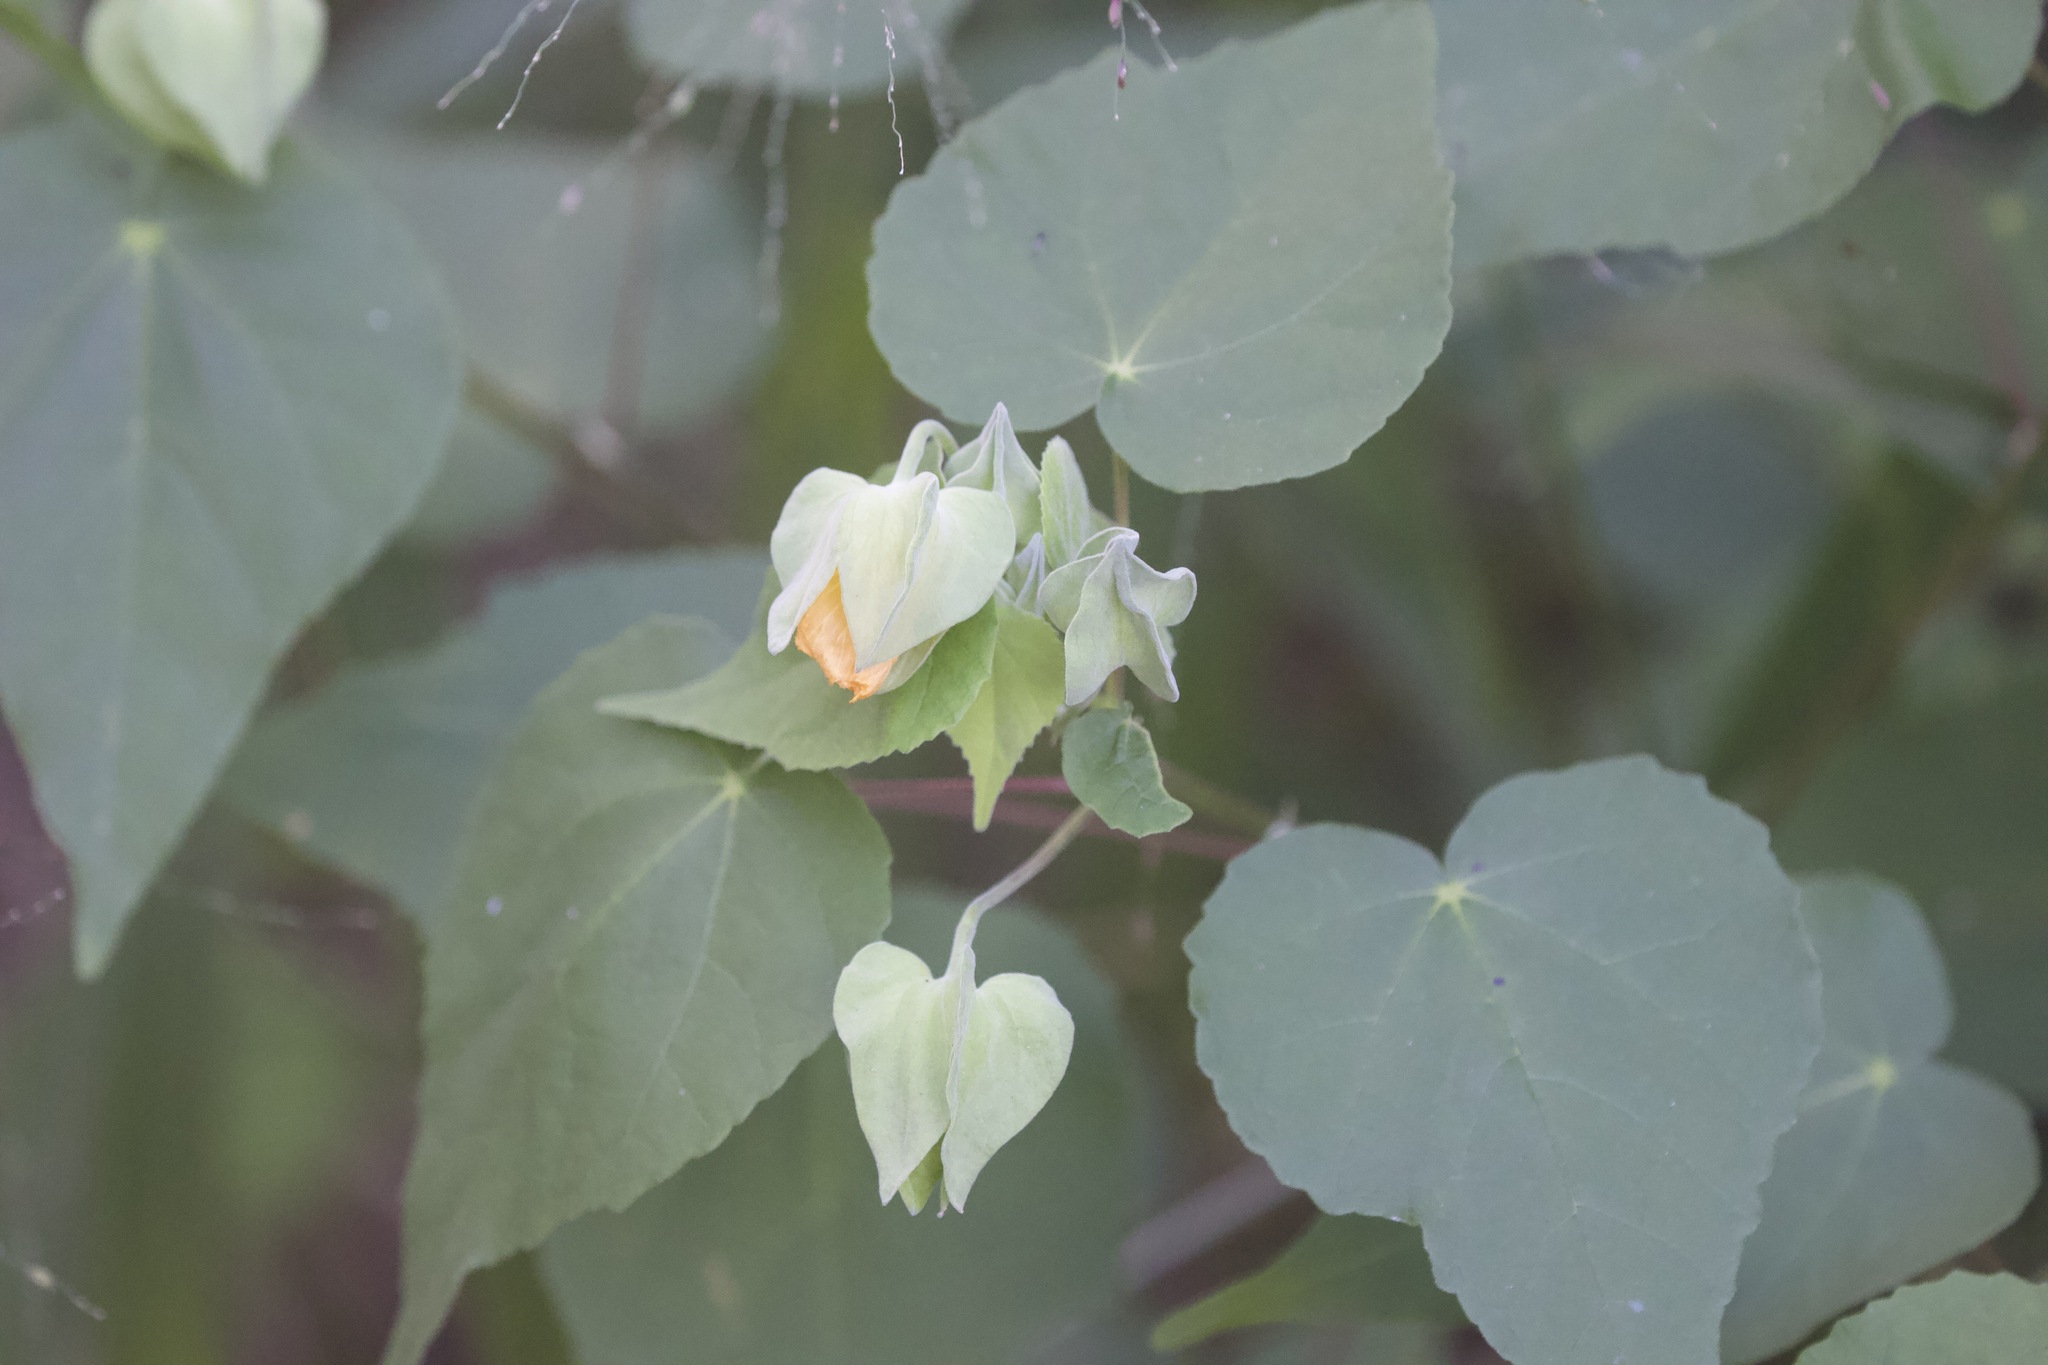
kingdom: Plantae
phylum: Tracheophyta
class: Magnoliopsida
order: Malvales
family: Malvaceae
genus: Abutilon
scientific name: Abutilon hypoleucum
